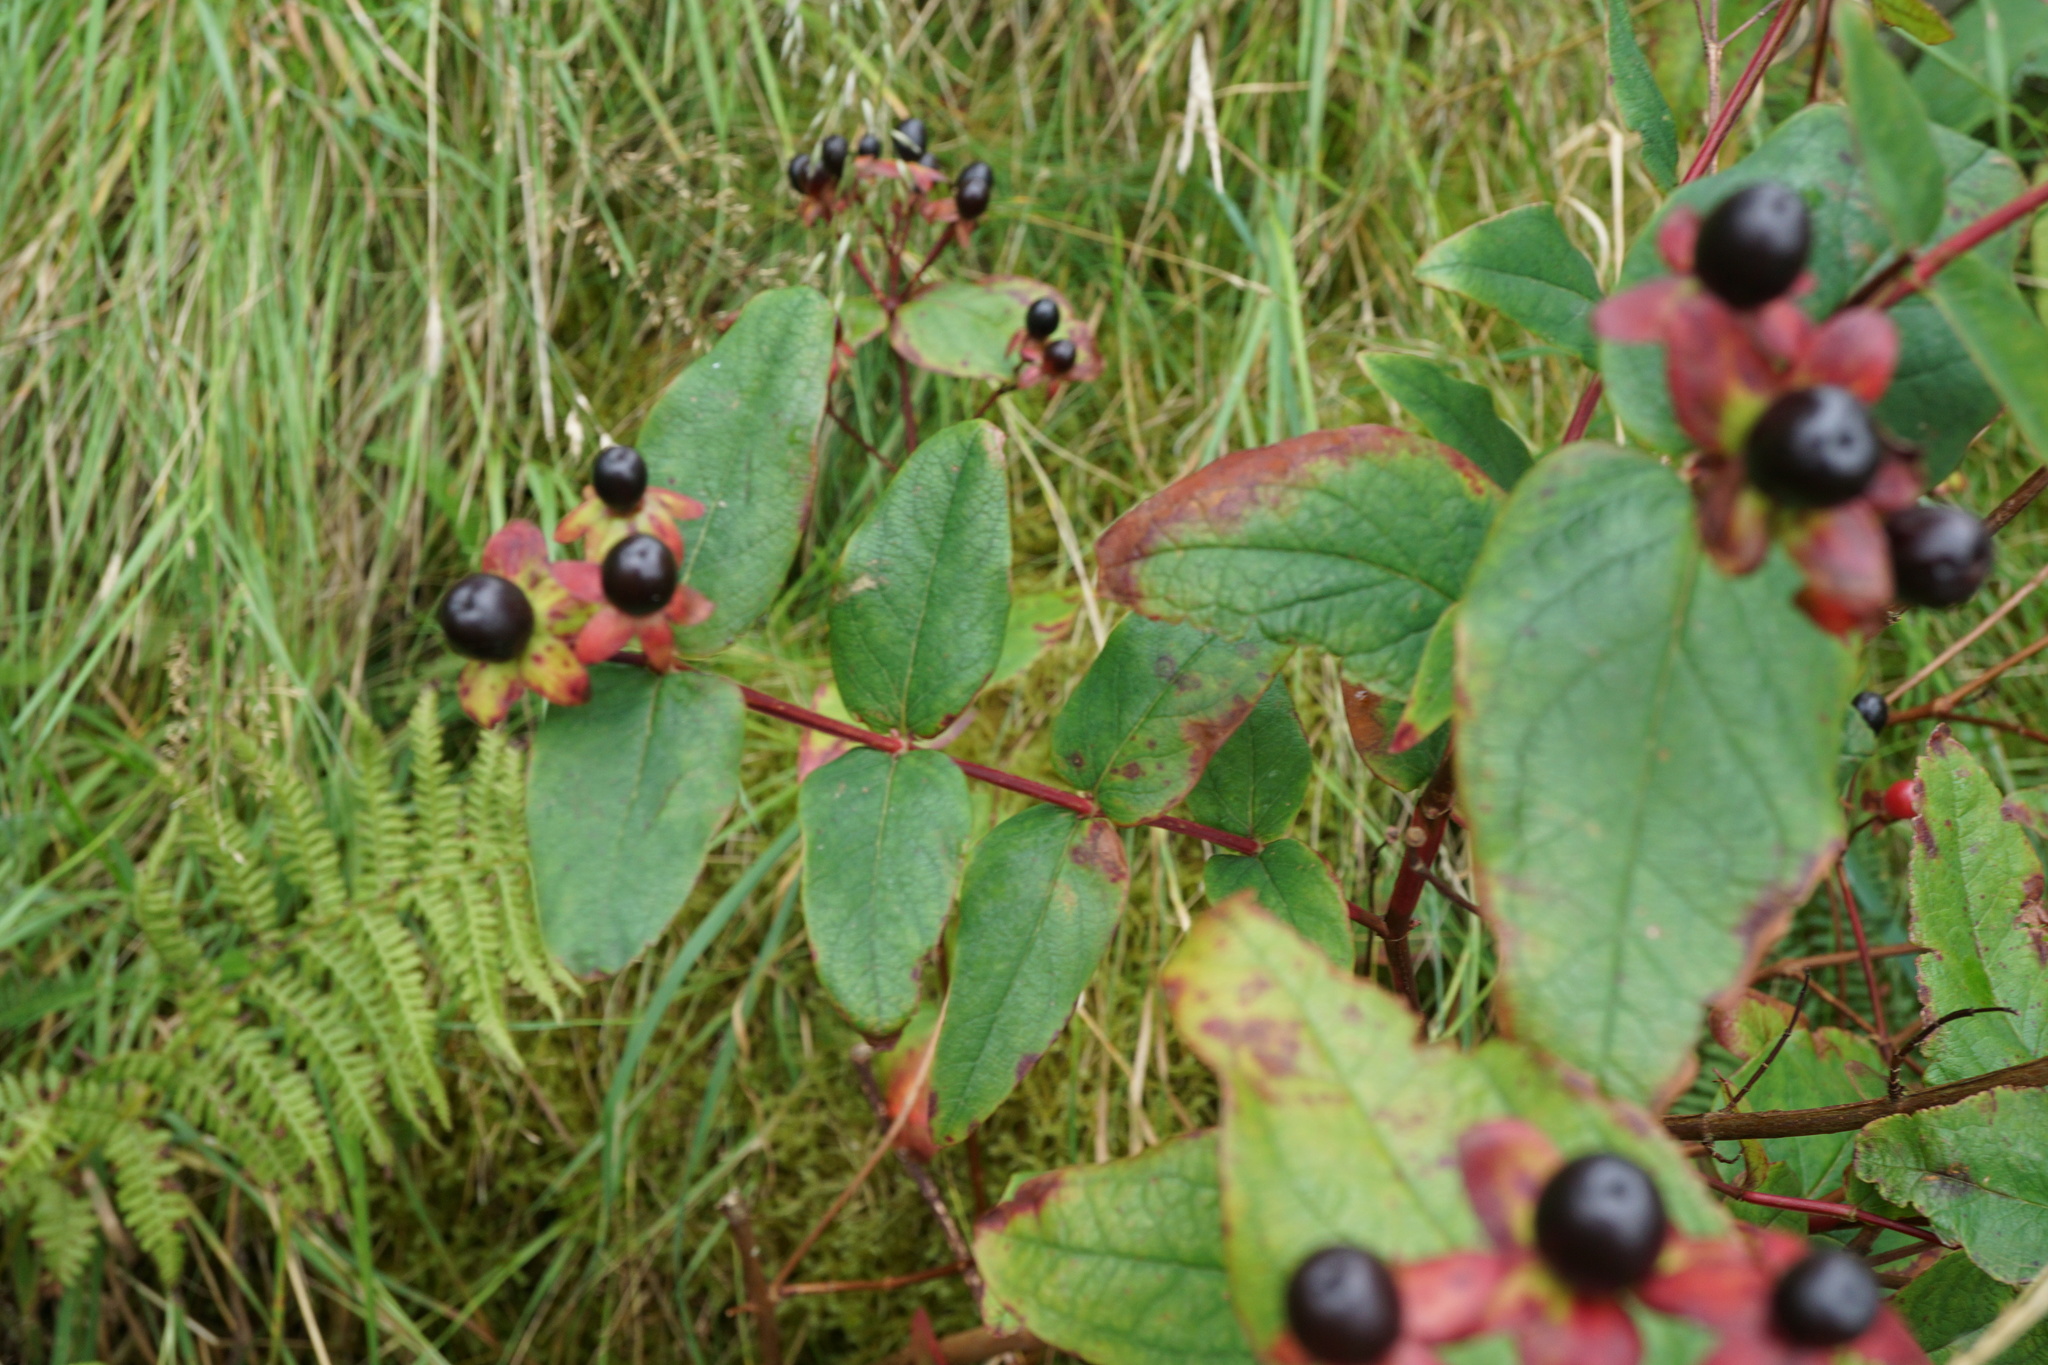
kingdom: Plantae
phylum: Tracheophyta
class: Magnoliopsida
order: Malpighiales
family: Hypericaceae
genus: Hypericum
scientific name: Hypericum androsaemum
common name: Sweet-amber
